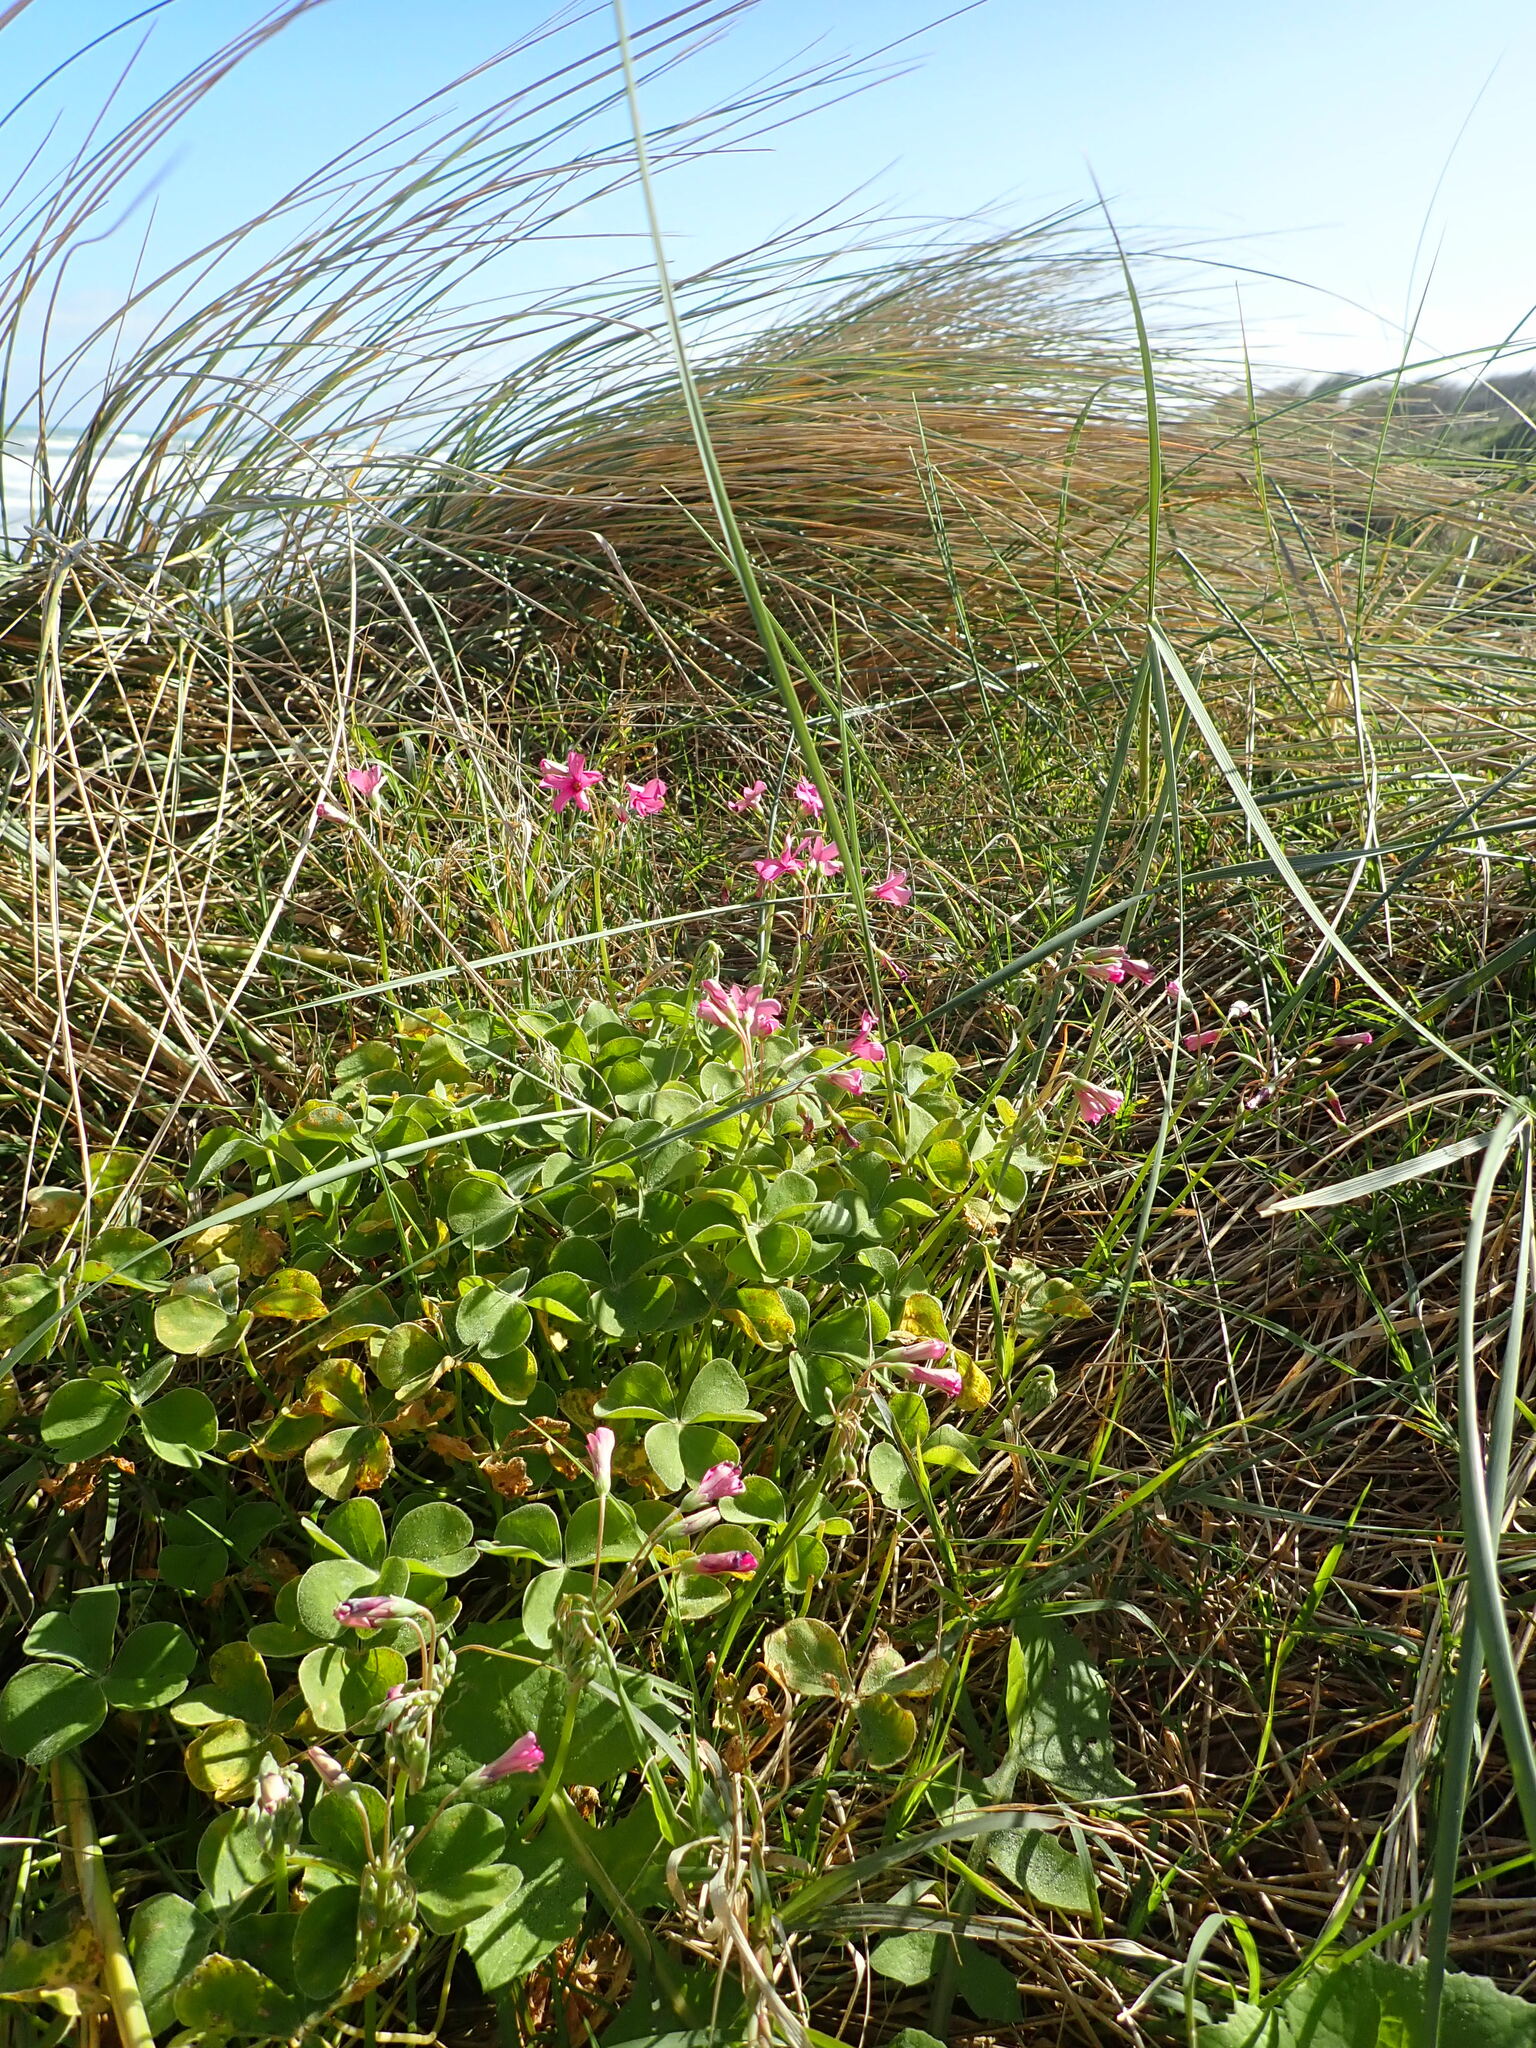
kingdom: Plantae
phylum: Tracheophyta
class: Magnoliopsida
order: Oxalidales
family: Oxalidaceae
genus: Oxalis
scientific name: Oxalis articulata
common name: Pink-sorrel
